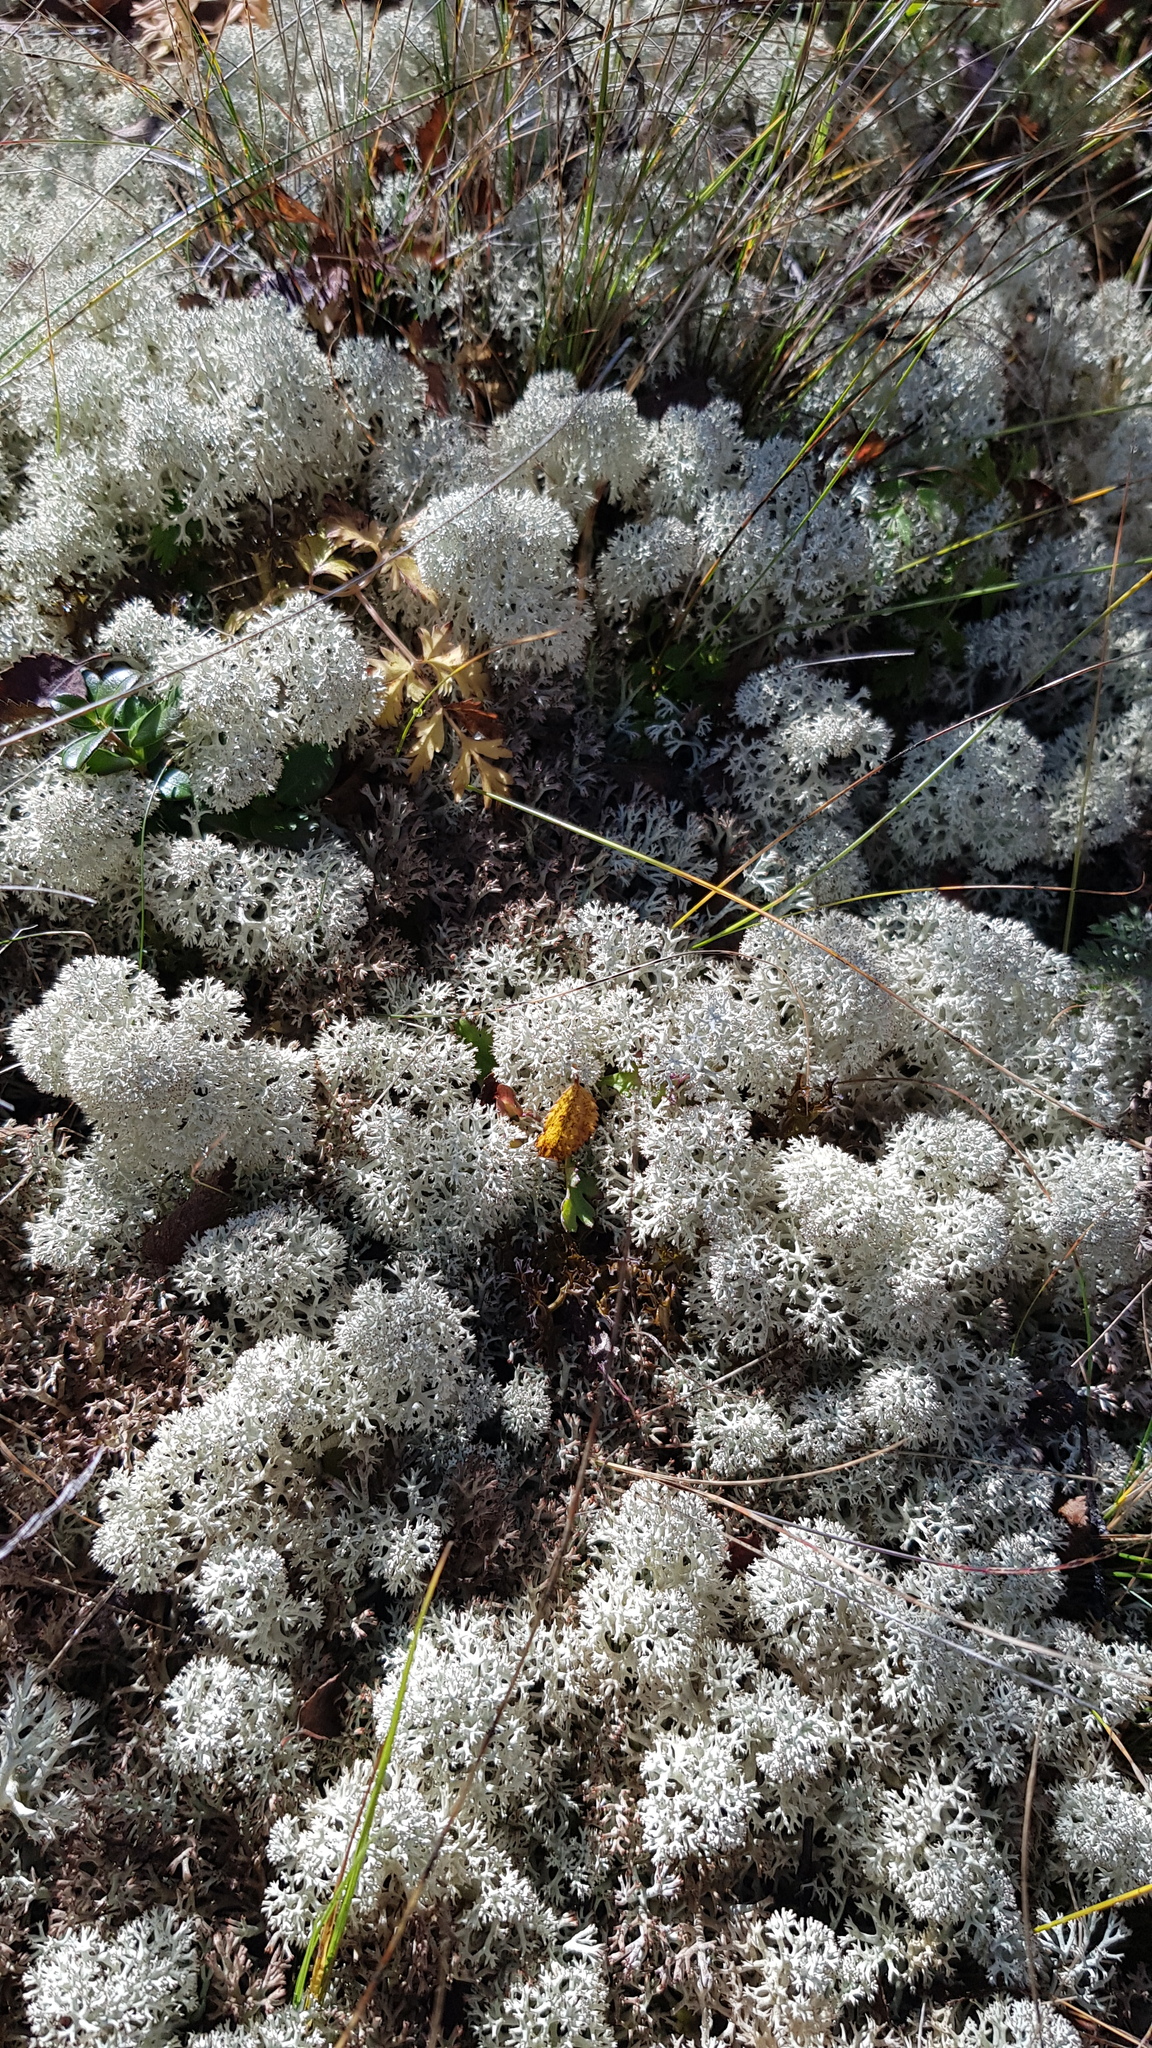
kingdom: Fungi
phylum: Ascomycota
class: Lecanoromycetes
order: Lecanorales
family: Cladoniaceae
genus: Cladonia
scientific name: Cladonia stellaris
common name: Star-tipped reindeer lichen
